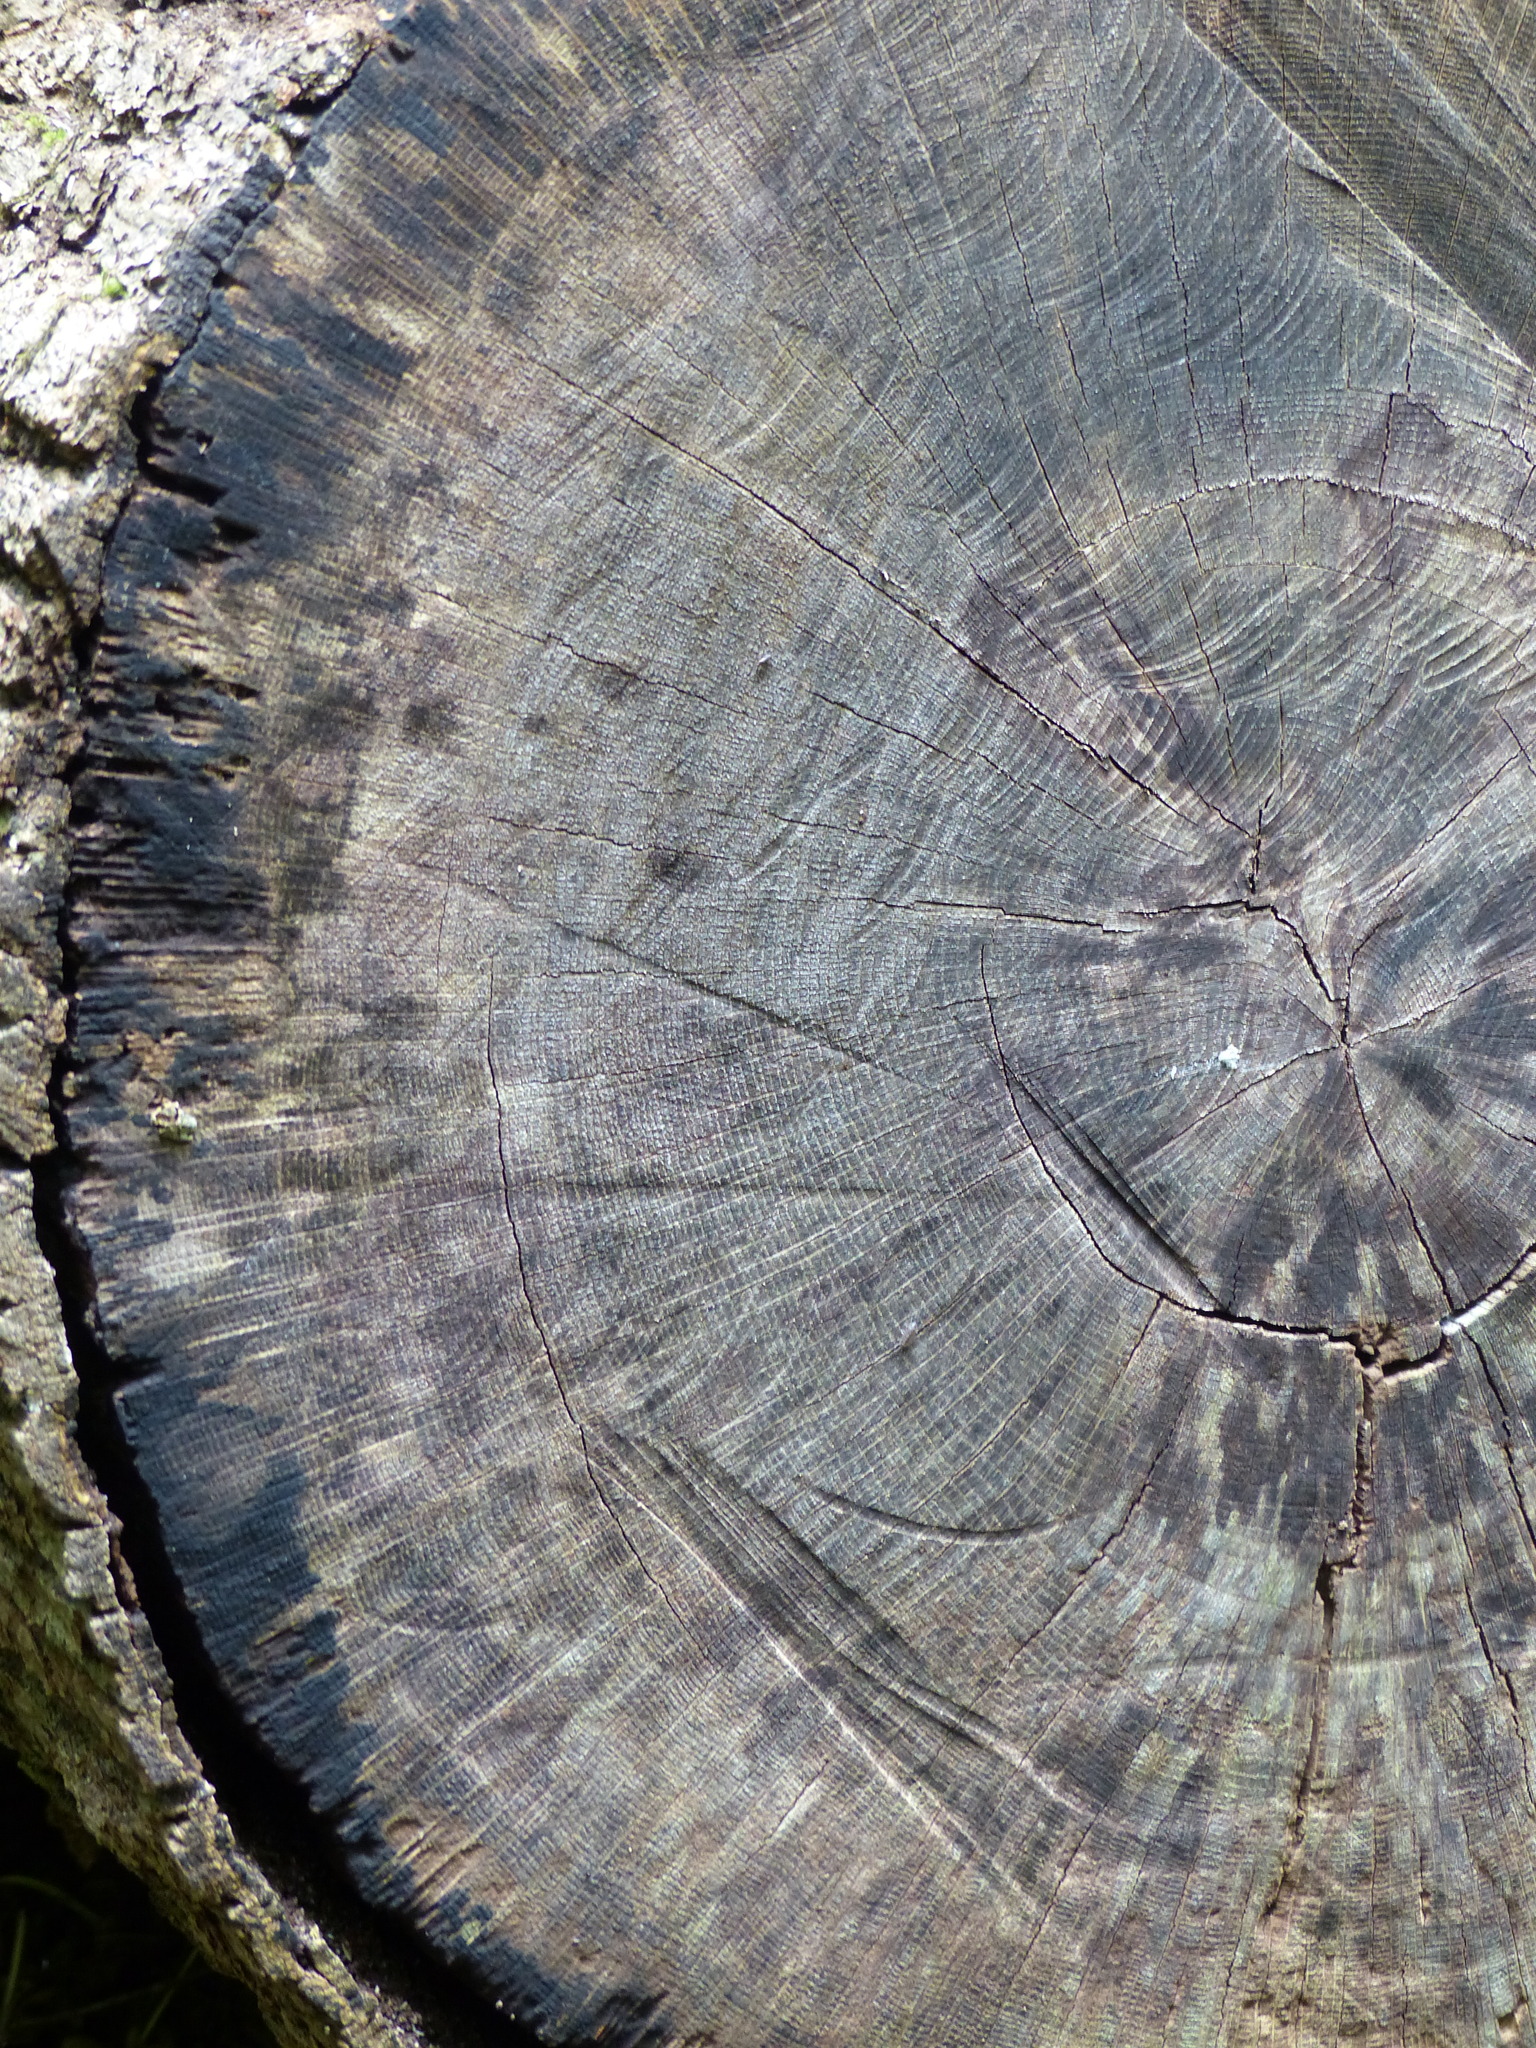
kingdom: Plantae
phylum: Tracheophyta
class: Magnoliopsida
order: Fagales
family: Fagaceae
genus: Quercus
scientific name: Quercus garryana
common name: Garry oak
